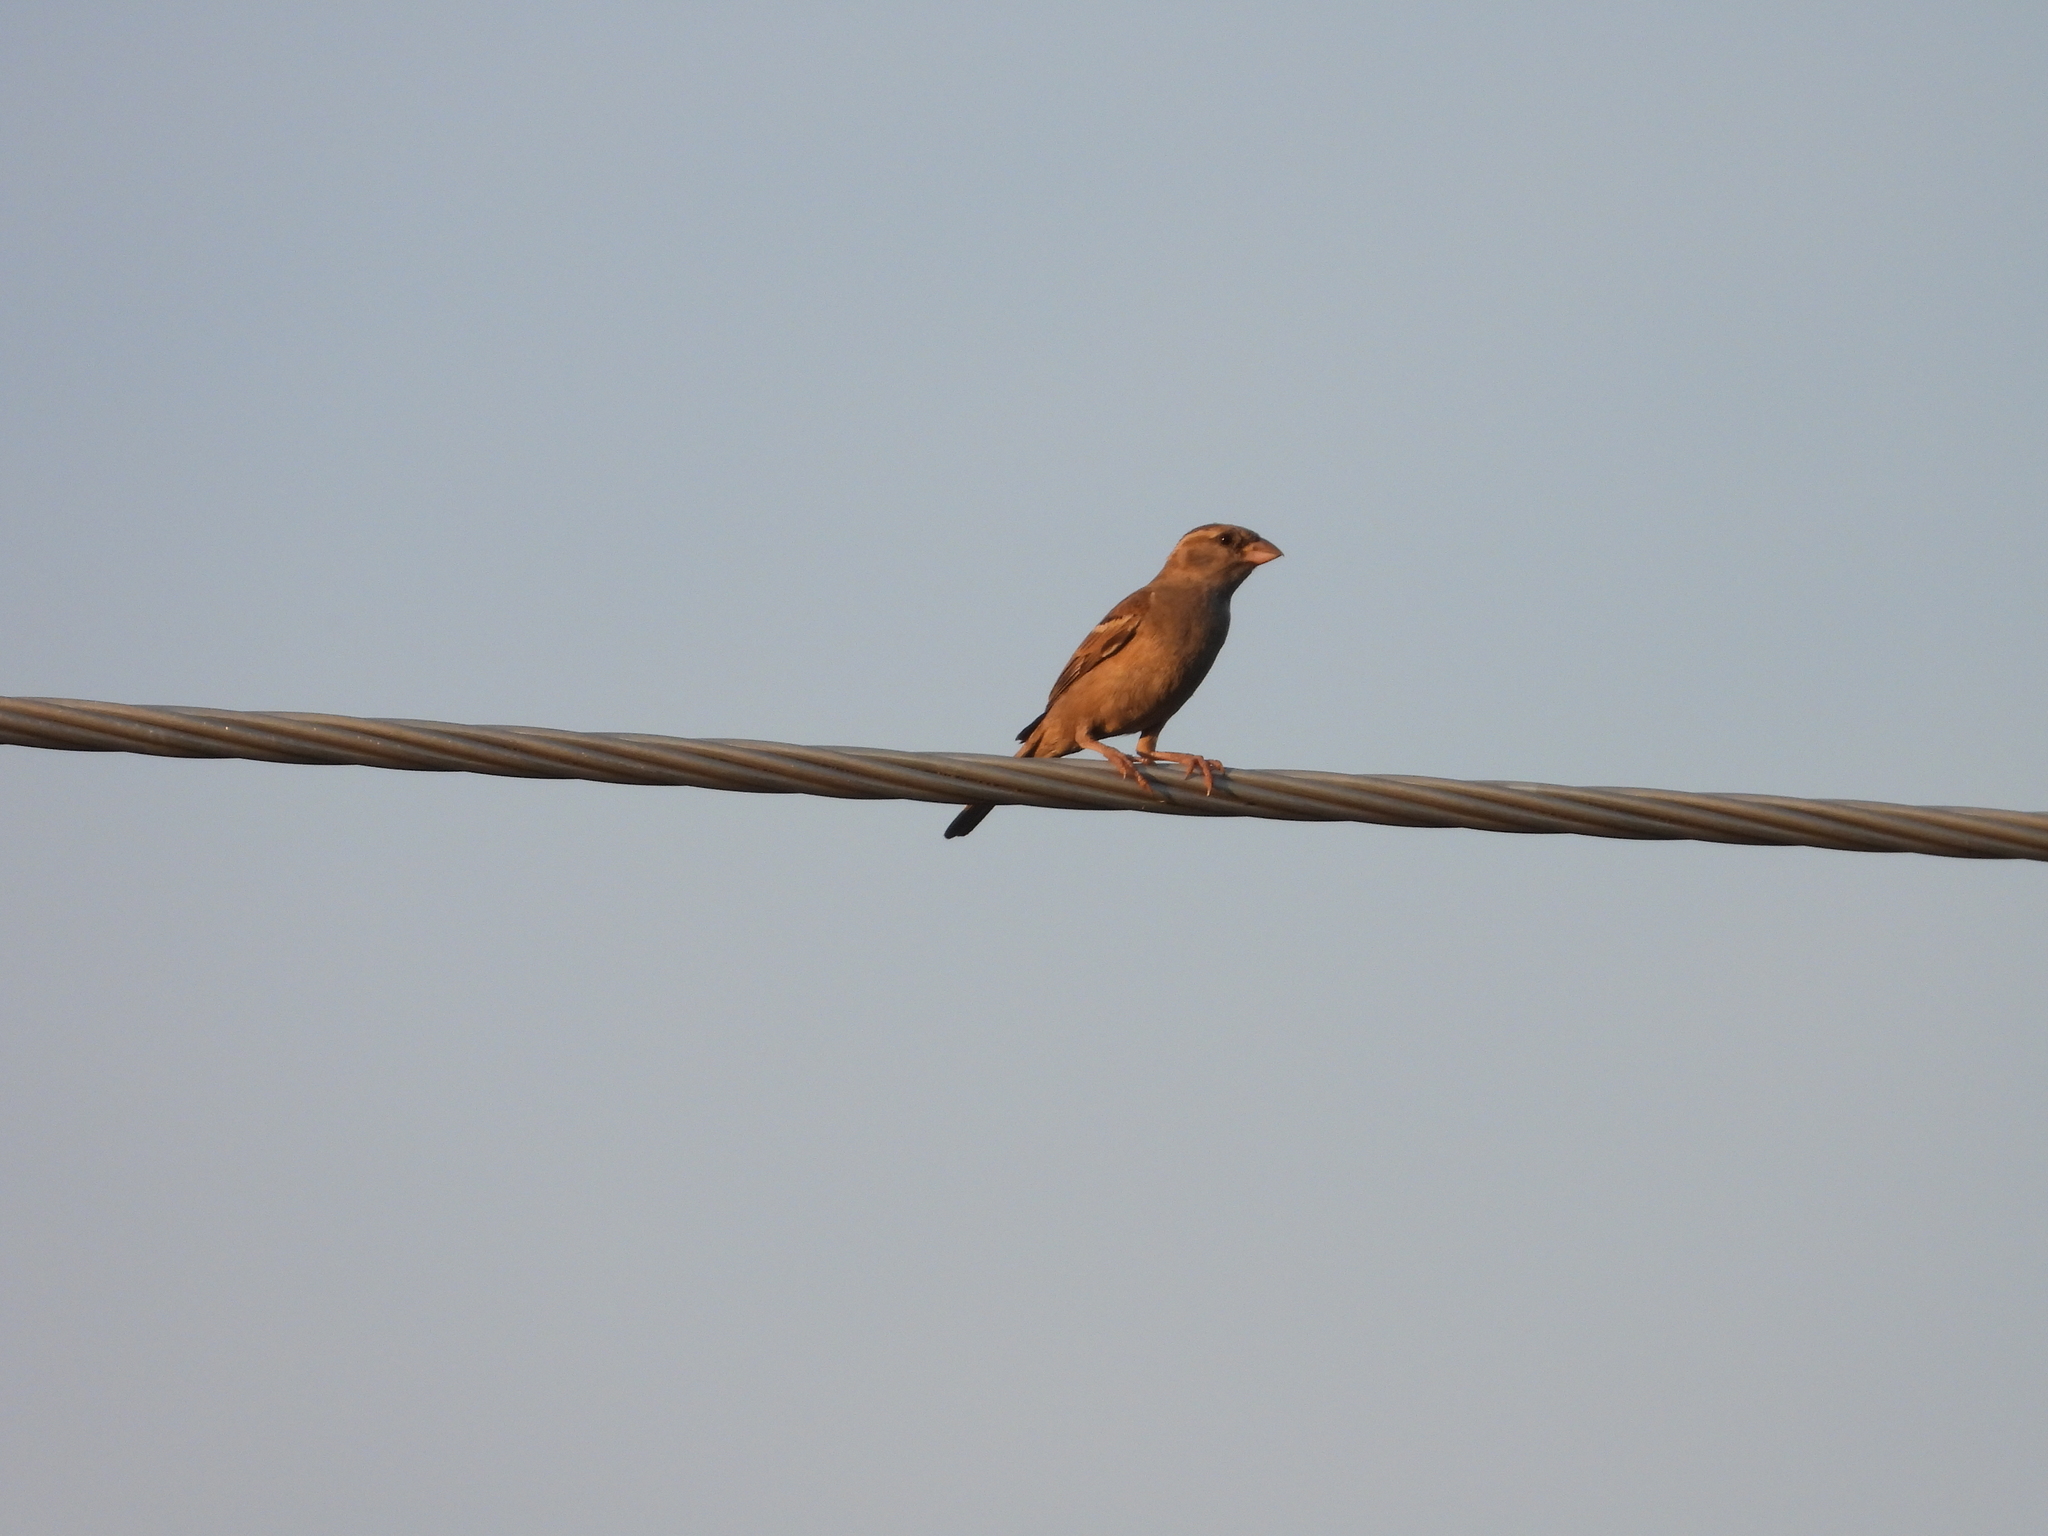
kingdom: Animalia
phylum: Chordata
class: Aves
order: Passeriformes
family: Passeridae
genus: Passer
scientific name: Passer domesticus
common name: House sparrow
